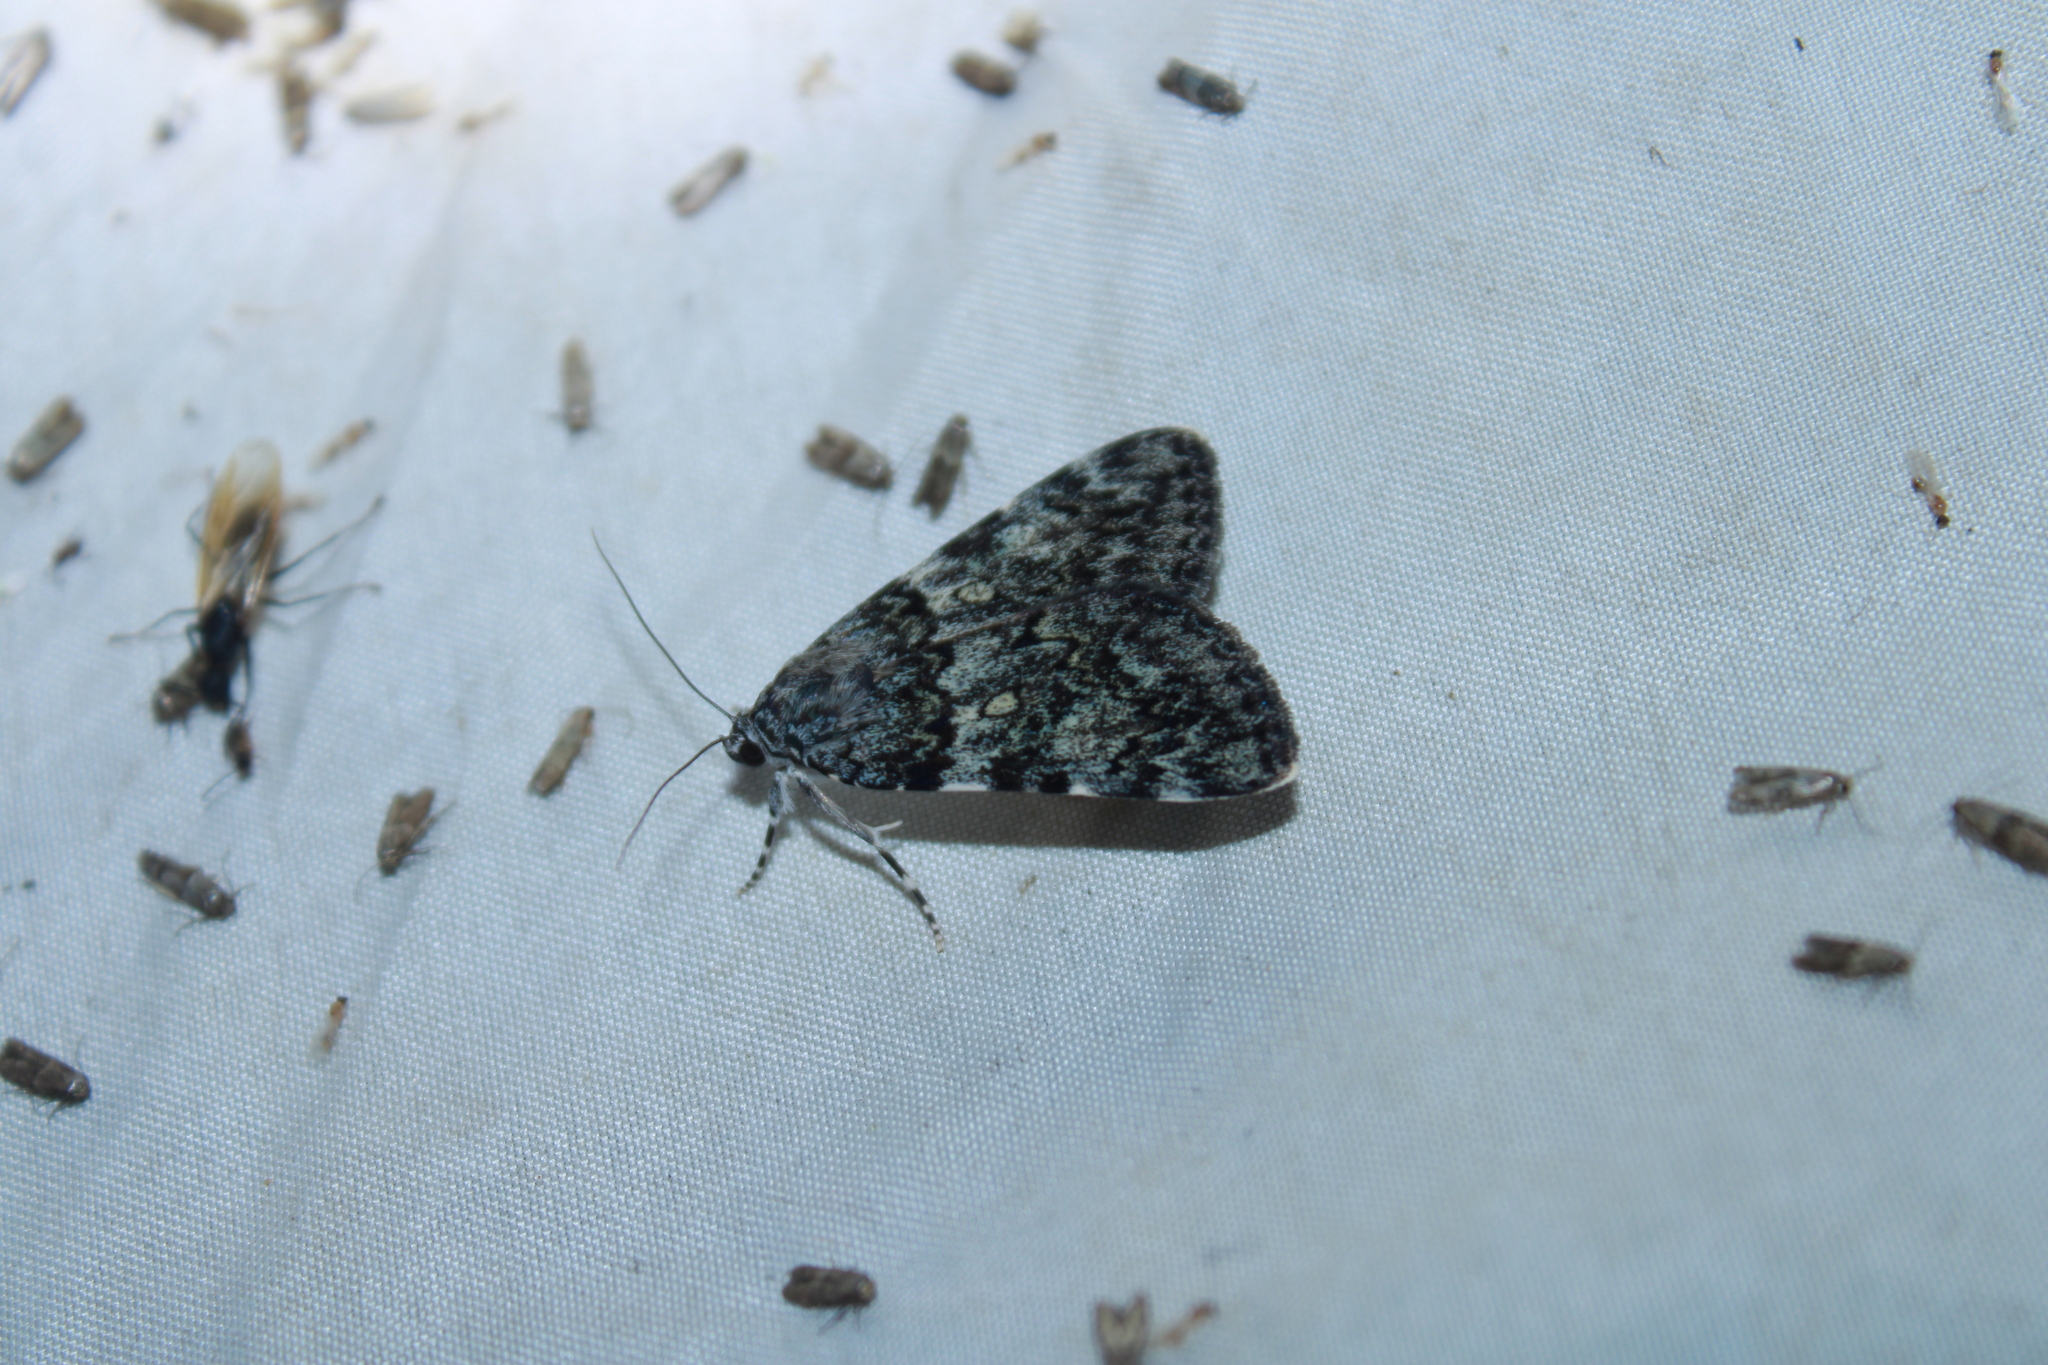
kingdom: Animalia
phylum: Arthropoda
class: Insecta
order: Lepidoptera
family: Erebidae
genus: Catocala
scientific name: Catocala lineella
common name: Little lined underwing
